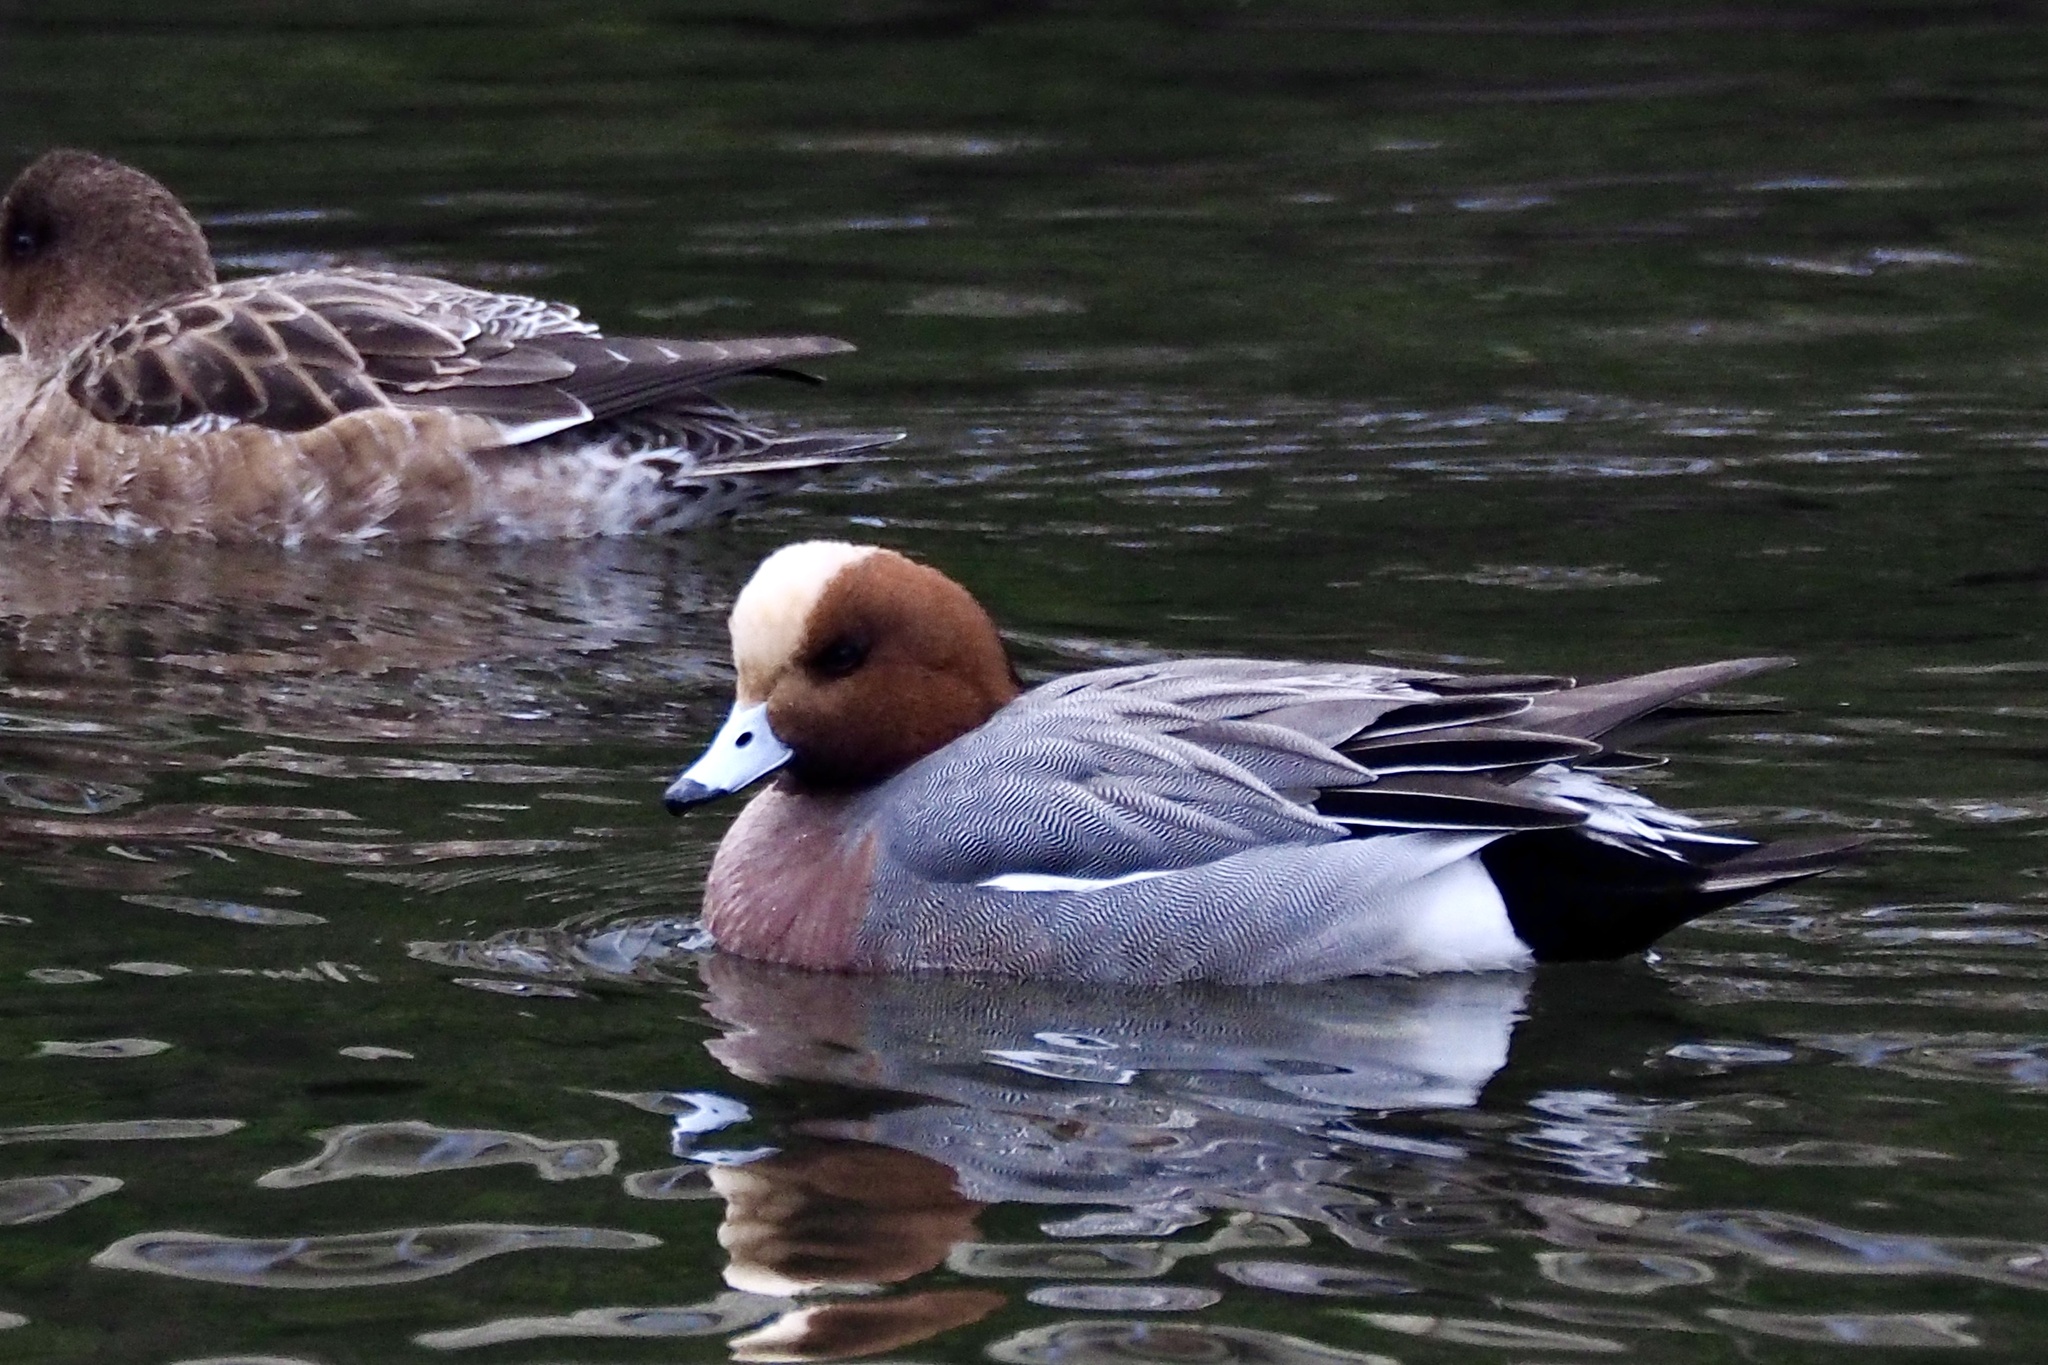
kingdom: Animalia
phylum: Chordata
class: Aves
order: Anseriformes
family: Anatidae
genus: Mareca
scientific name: Mareca penelope
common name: Eurasian wigeon
